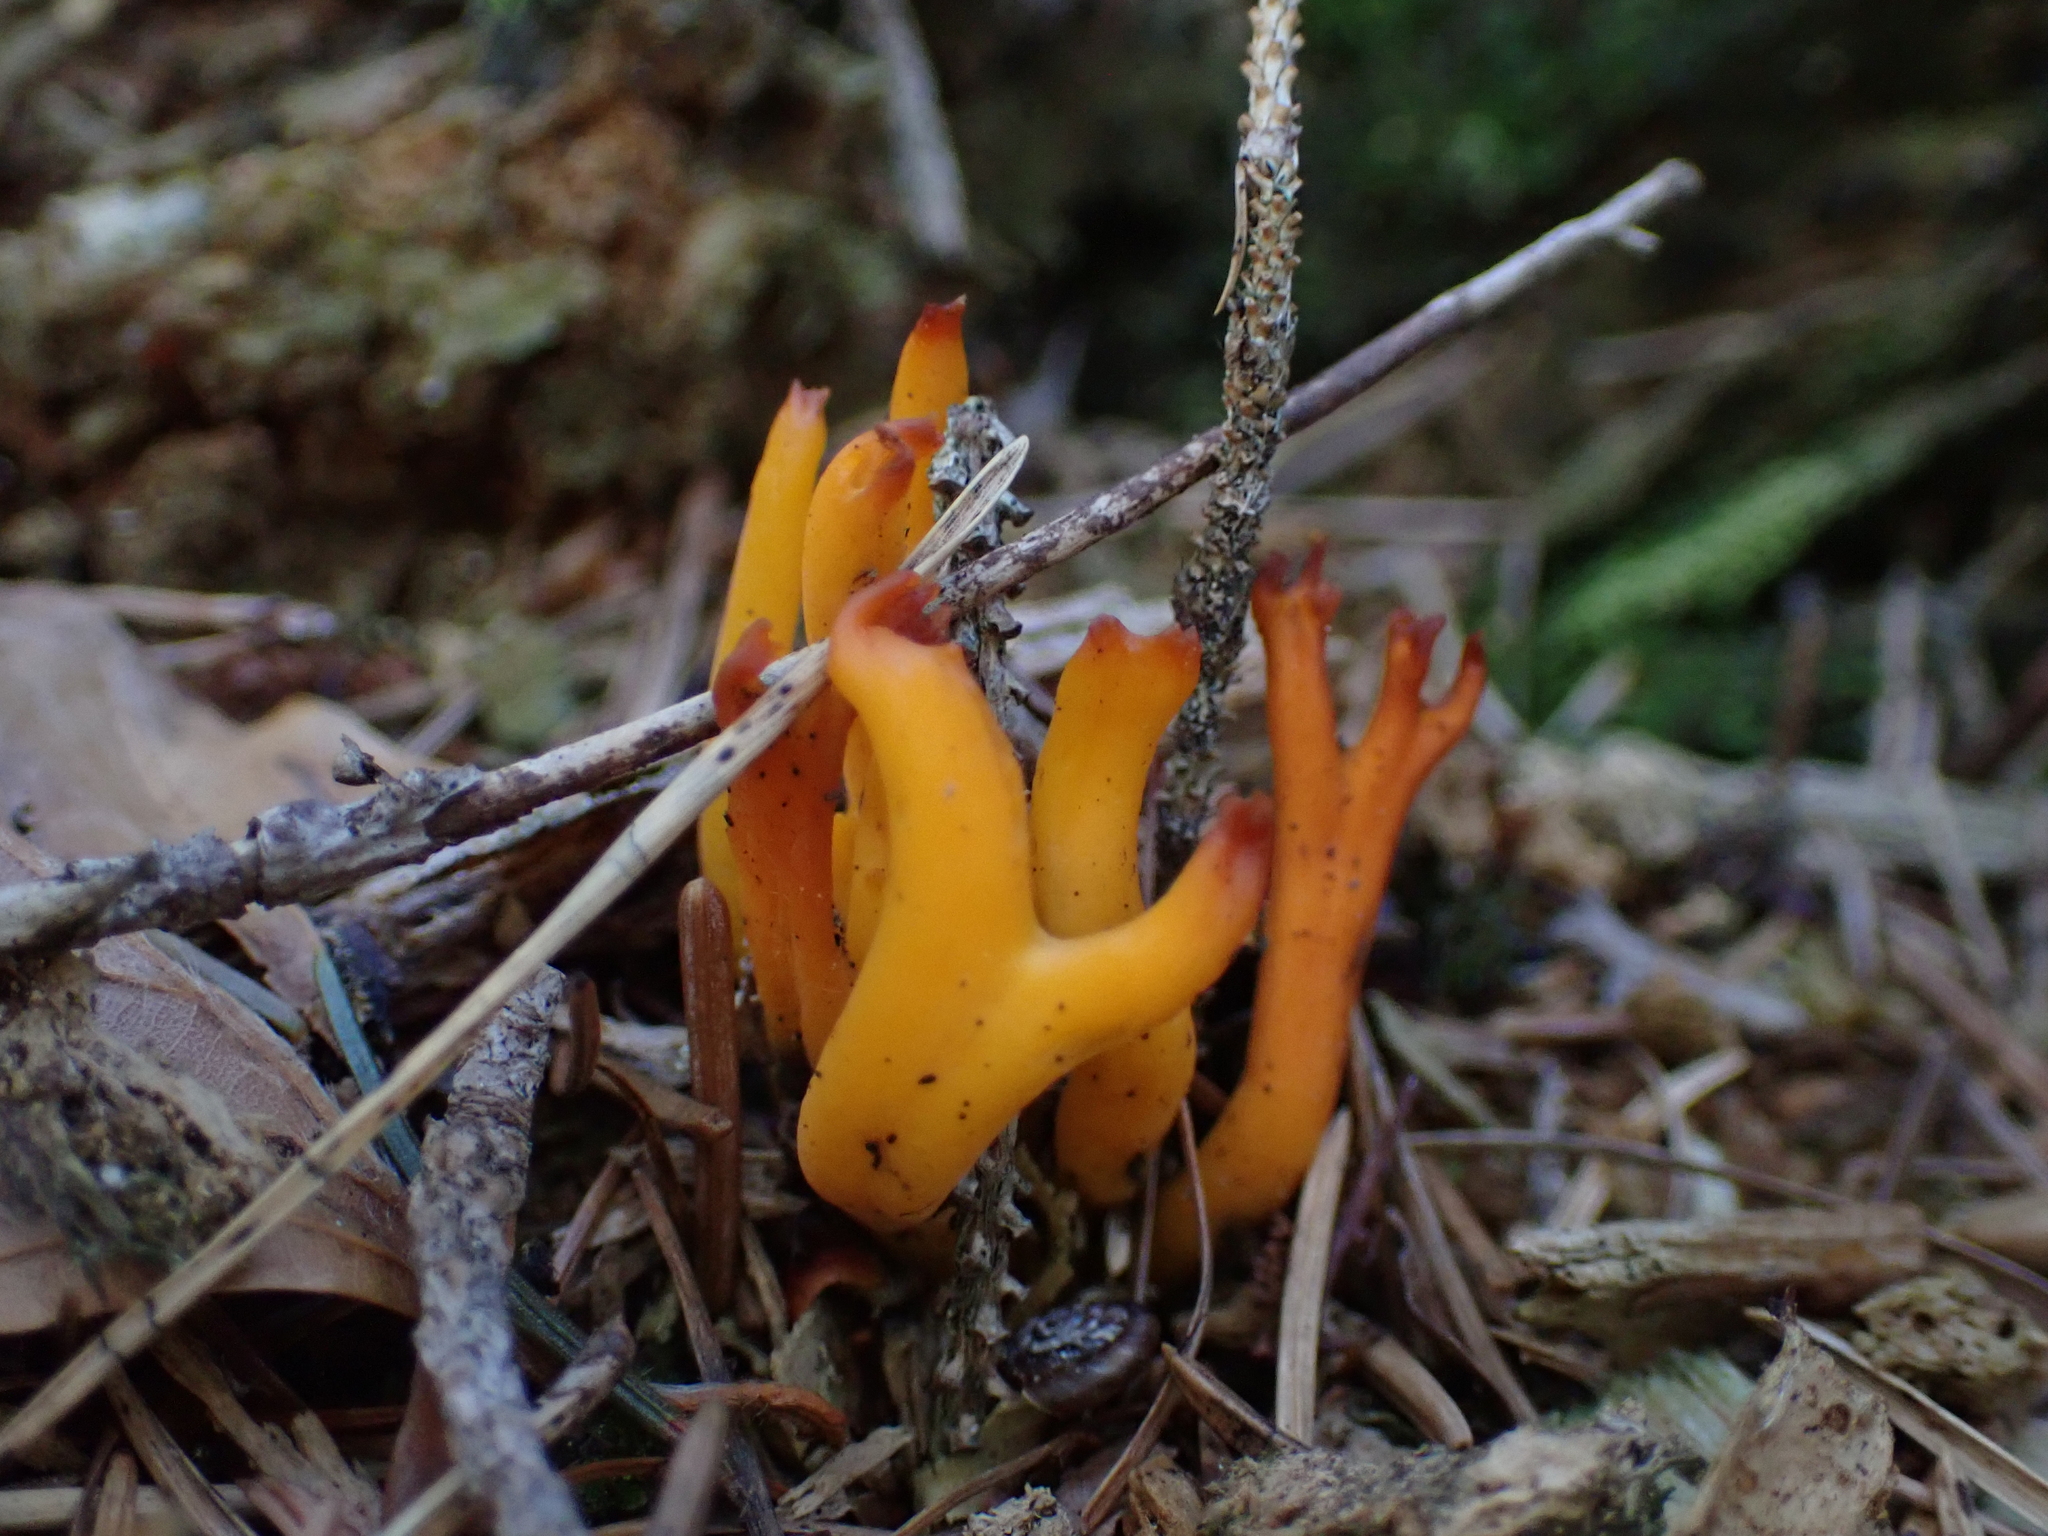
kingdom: Fungi
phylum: Basidiomycota
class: Dacrymycetes
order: Dacrymycetales
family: Dacrymycetaceae
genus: Calocera
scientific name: Calocera viscosa
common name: Yellow stagshorn
